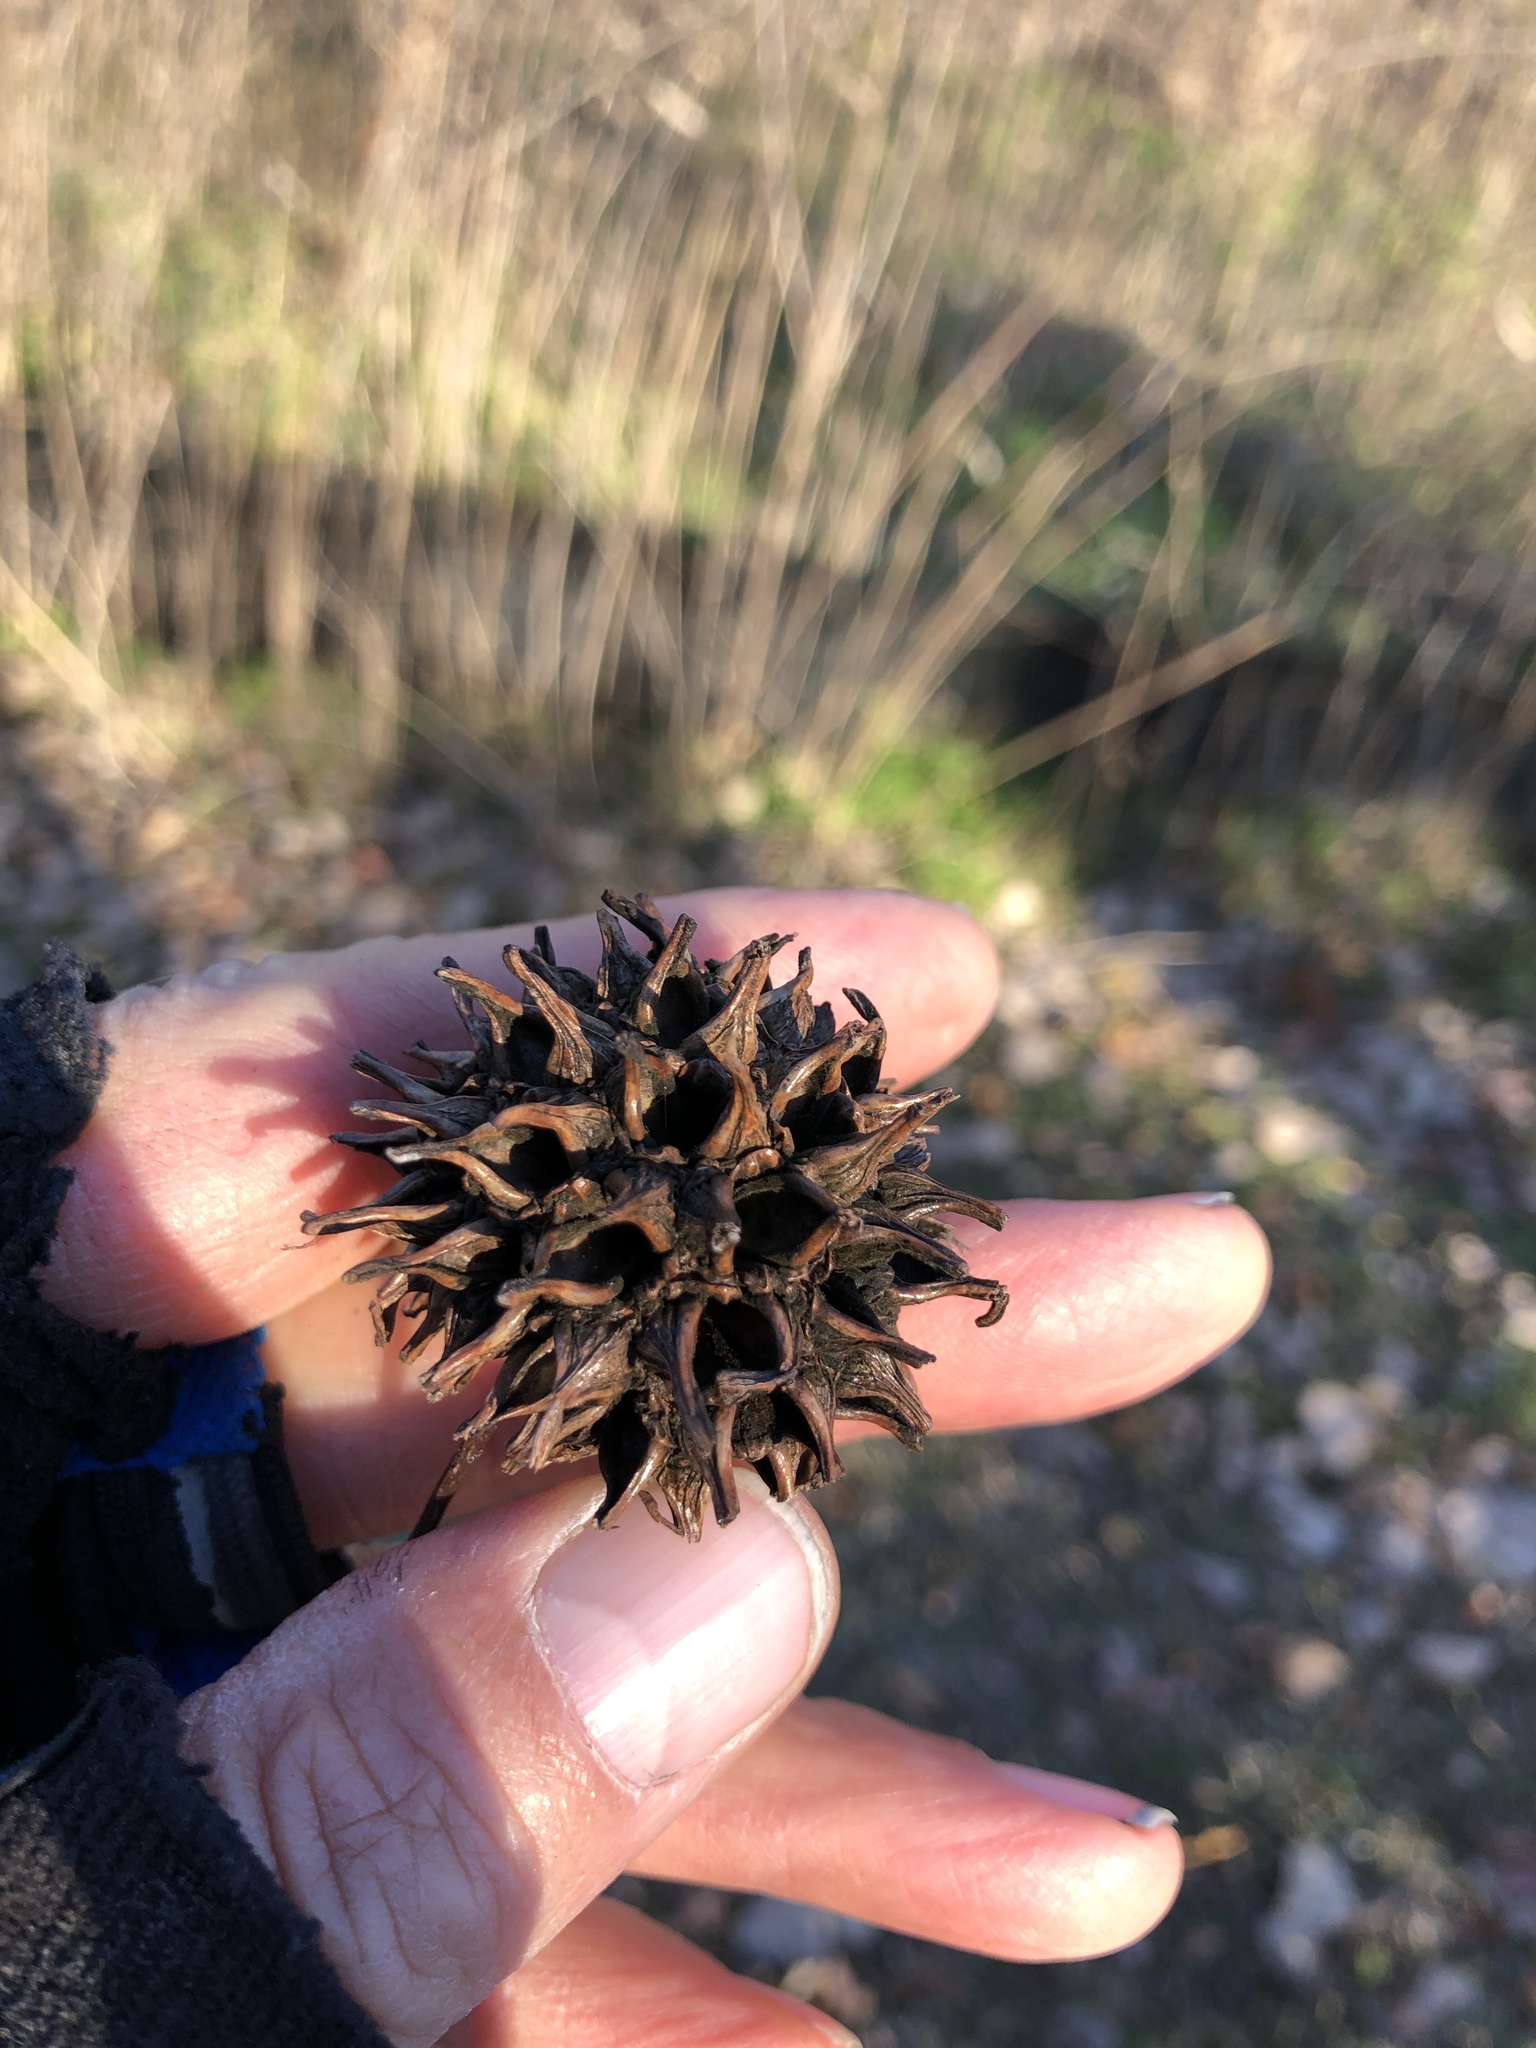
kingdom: Plantae
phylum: Tracheophyta
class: Magnoliopsida
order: Saxifragales
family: Altingiaceae
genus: Liquidambar
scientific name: Liquidambar styraciflua
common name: Sweet gum
